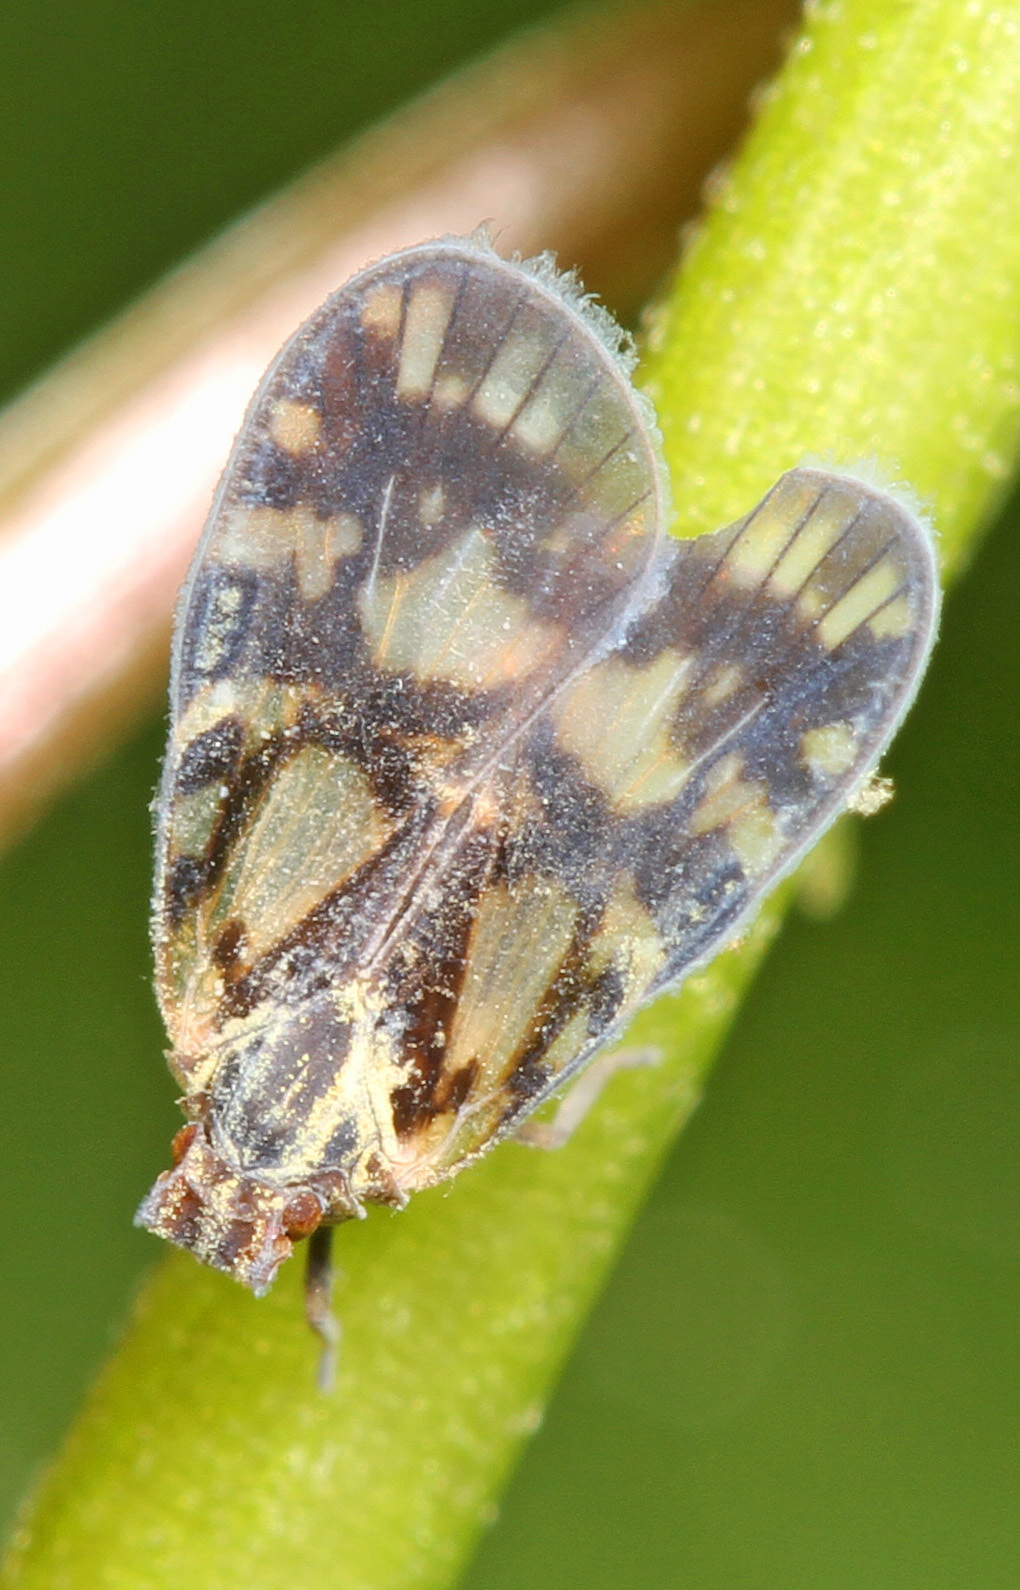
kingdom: Animalia
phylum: Arthropoda
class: Insecta
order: Hemiptera
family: Cixiidae
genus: Bothriocera
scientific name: Bothriocera cognita
